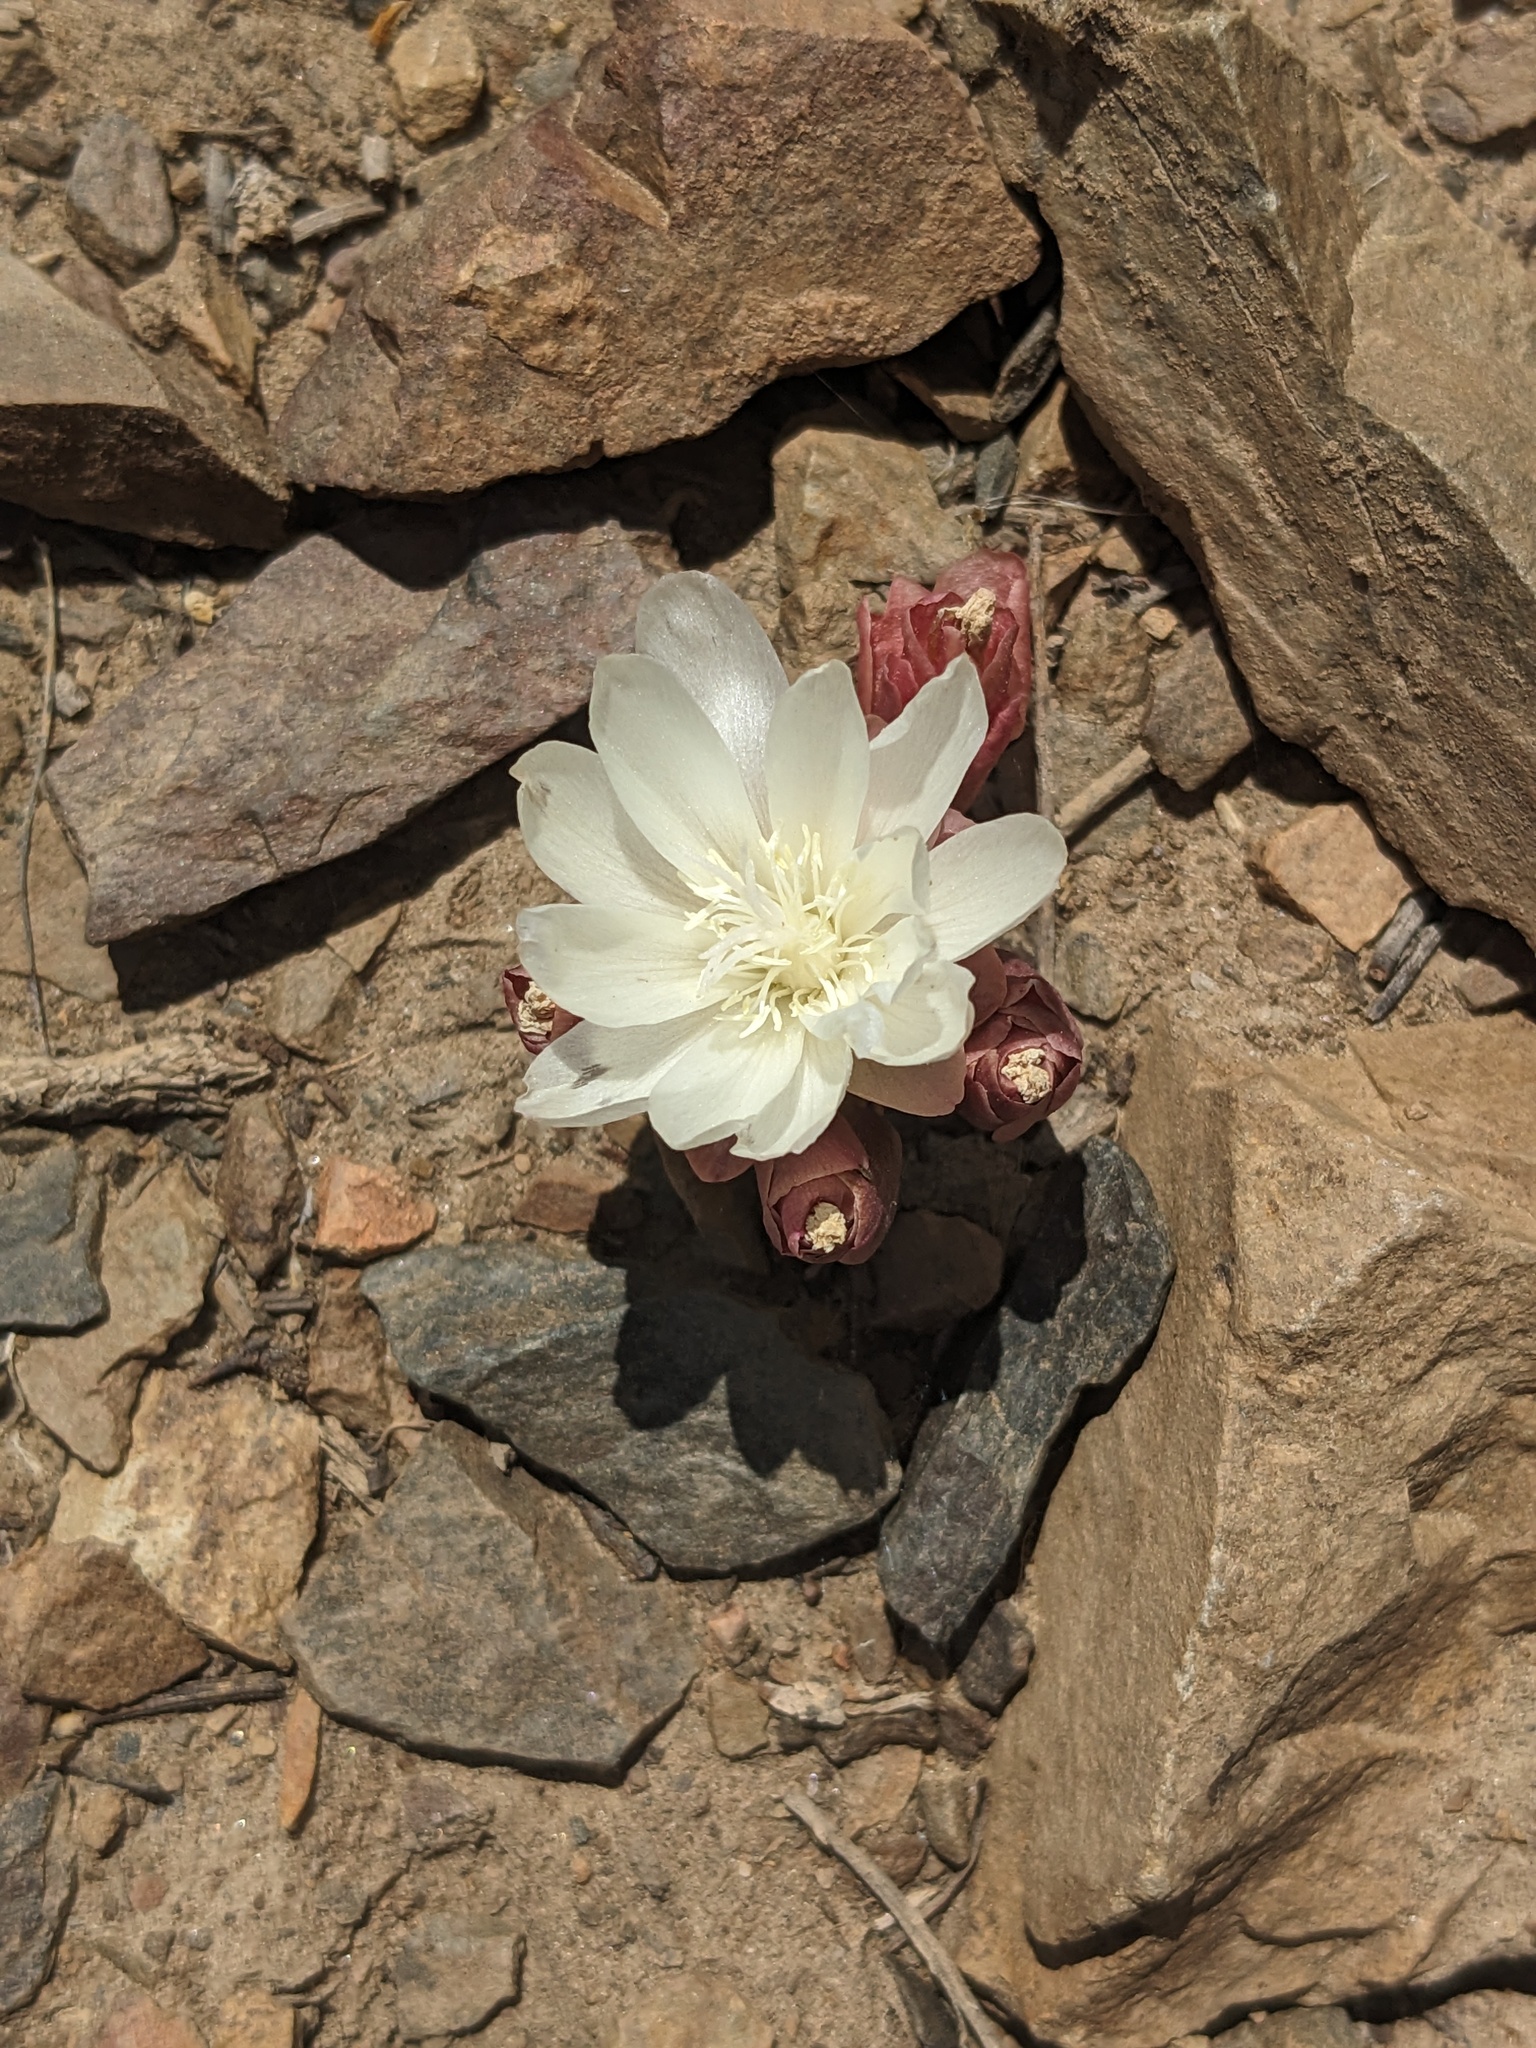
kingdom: Plantae
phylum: Tracheophyta
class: Magnoliopsida
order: Caryophyllales
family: Montiaceae
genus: Lewisia
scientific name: Lewisia rediviva
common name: Bitter-root
